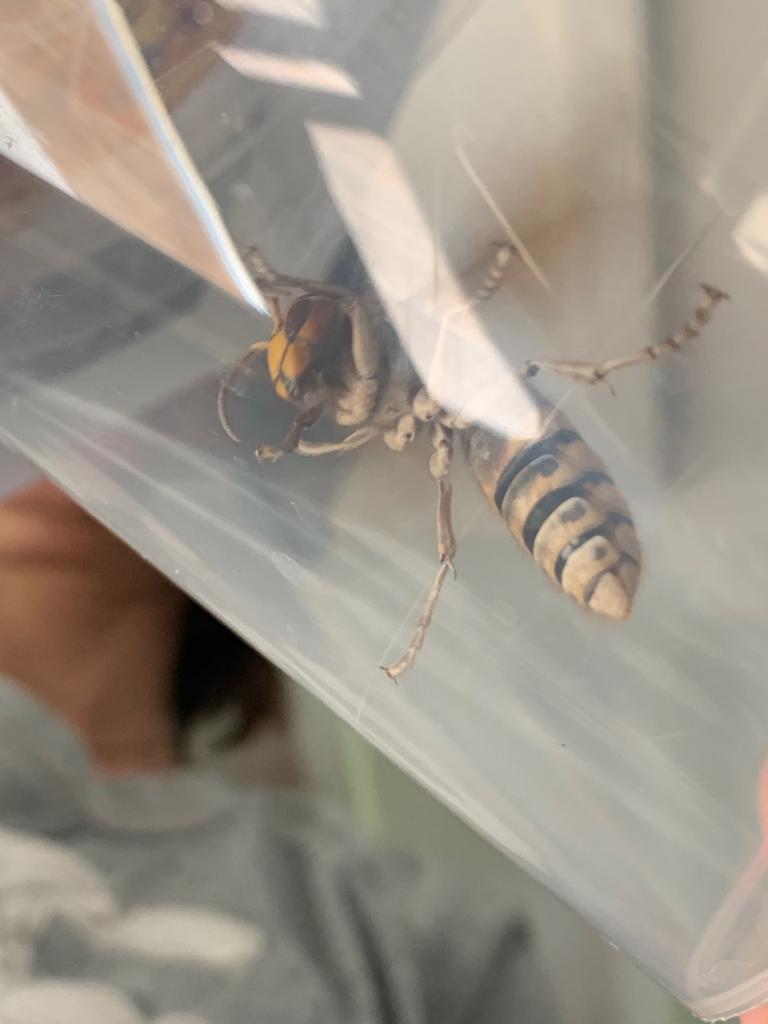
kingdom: Animalia
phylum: Arthropoda
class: Insecta
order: Hymenoptera
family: Vespidae
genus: Vespa
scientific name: Vespa crabro
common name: Hornet
